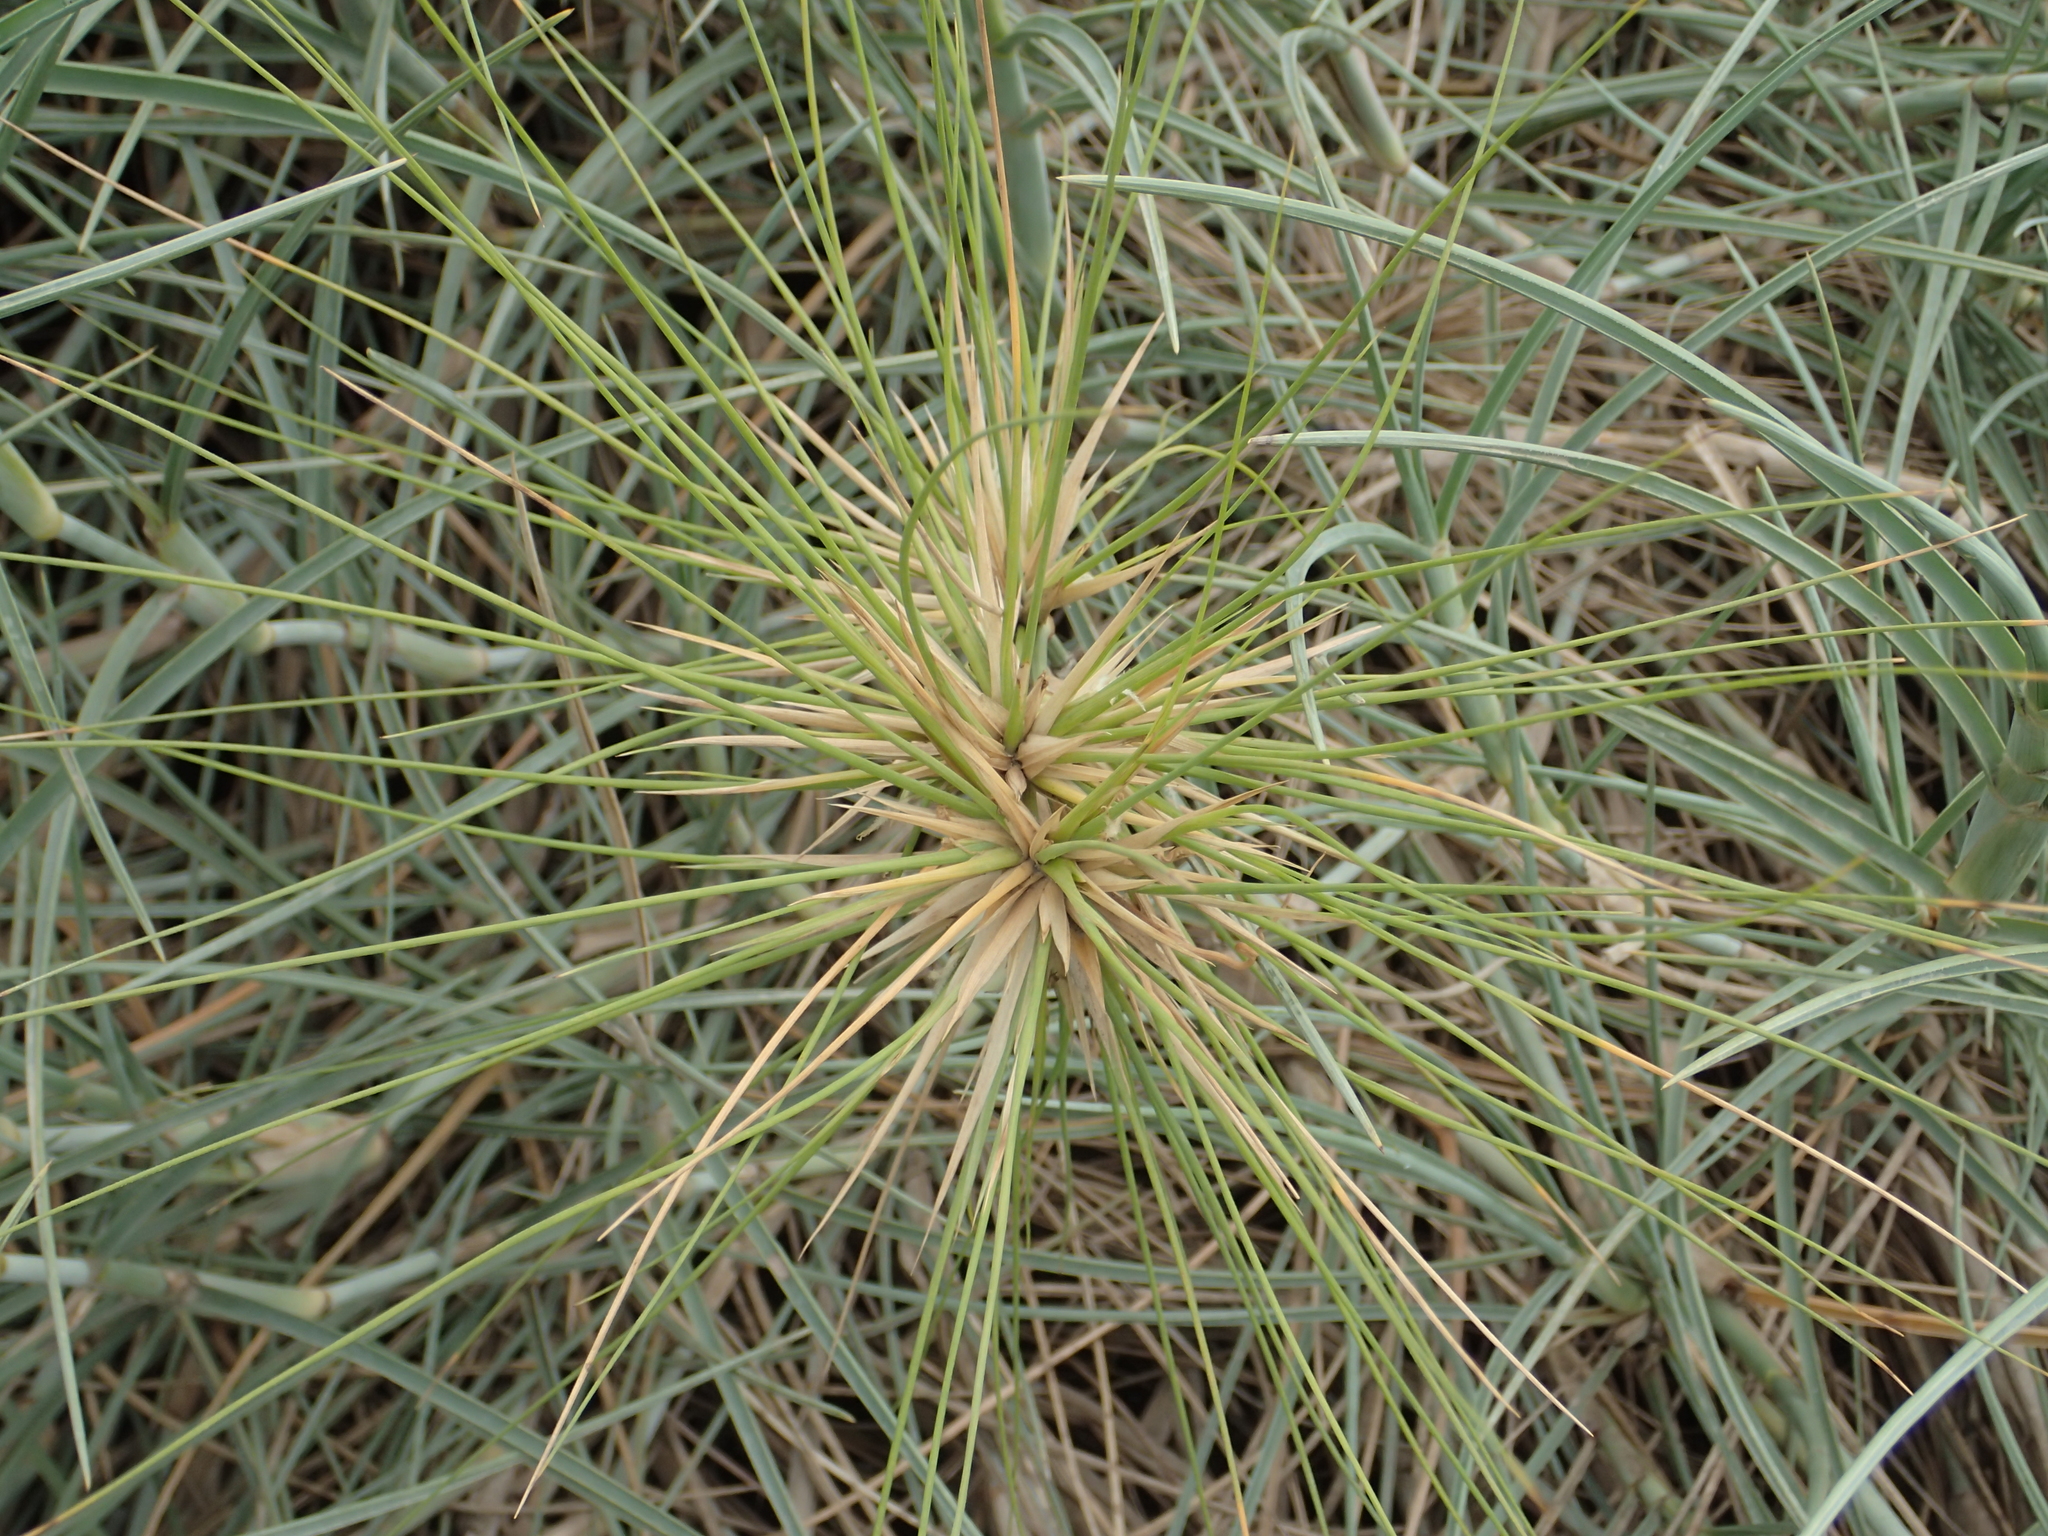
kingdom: Plantae
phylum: Tracheophyta
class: Liliopsida
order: Poales
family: Poaceae
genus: Spinifex
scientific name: Spinifex littoreus
